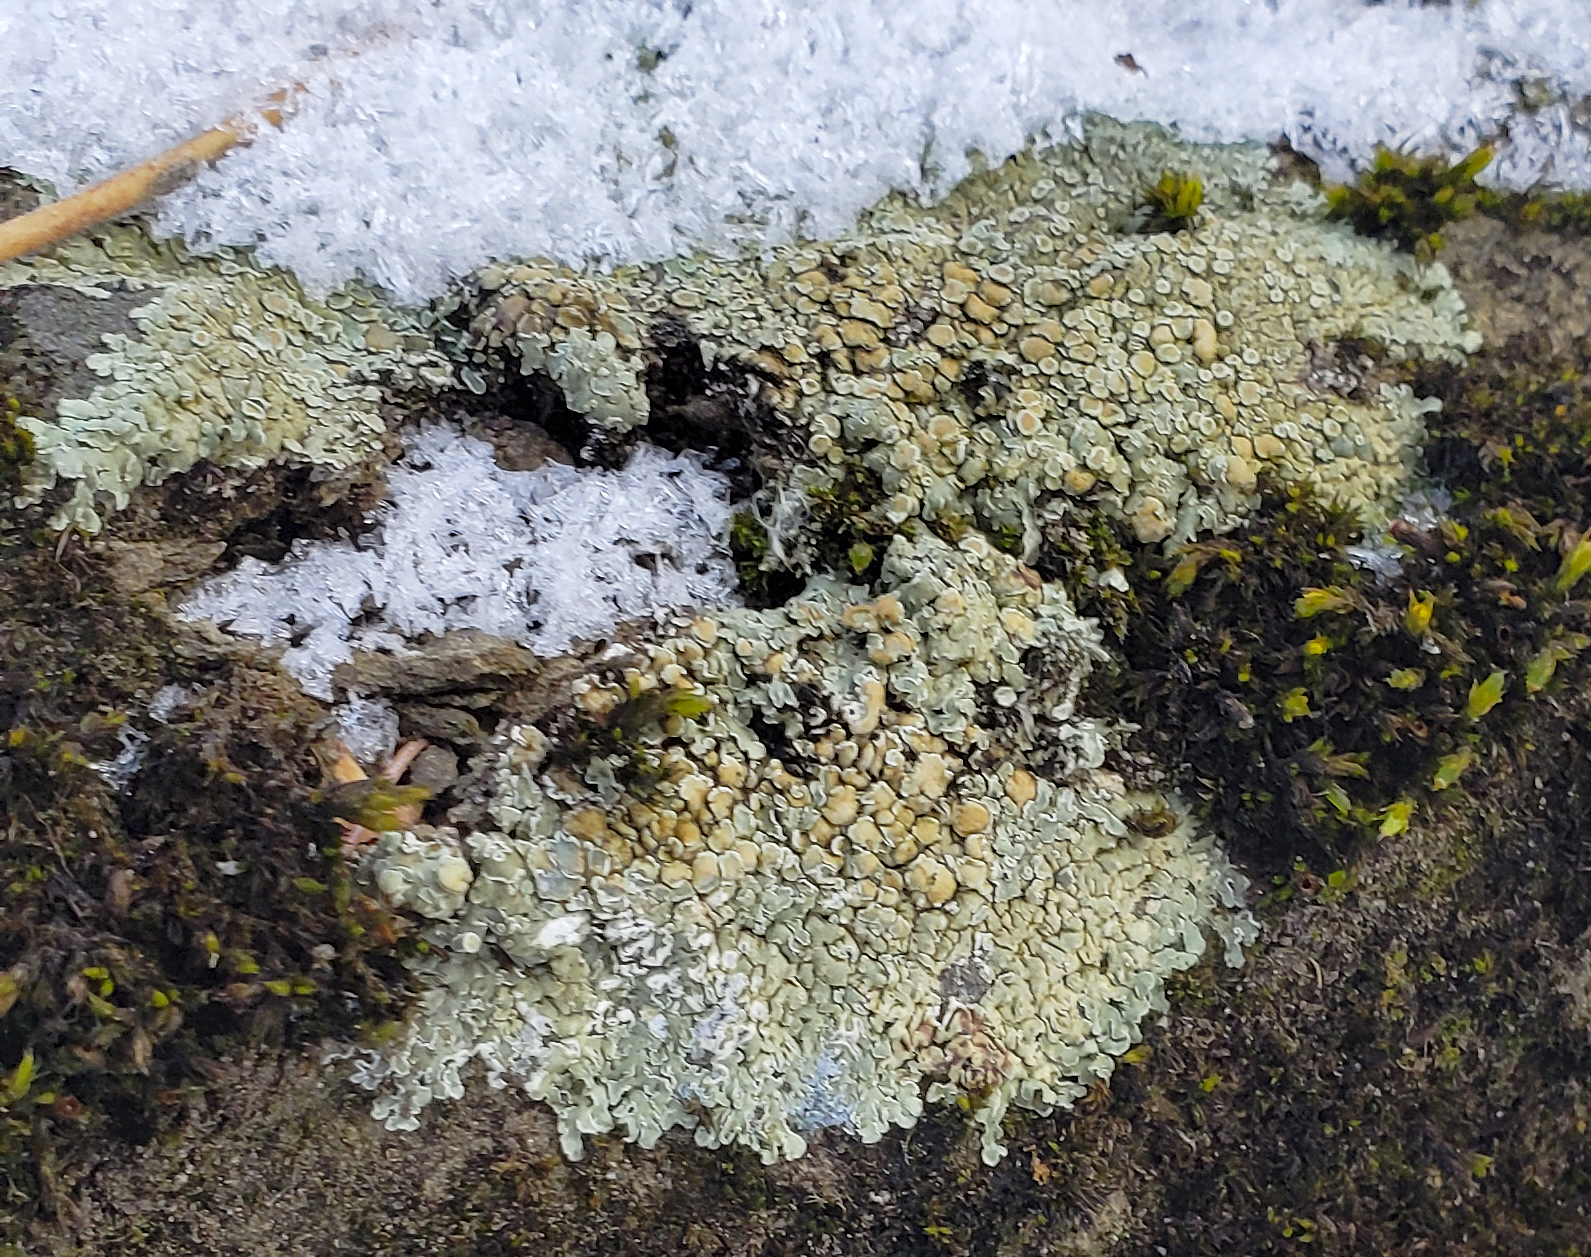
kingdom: Fungi
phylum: Ascomycota
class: Lecanoromycetes
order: Lecanorales
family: Lecanoraceae
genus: Protoparmeliopsis
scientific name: Protoparmeliopsis muralis
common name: Stonewall rim lichen
